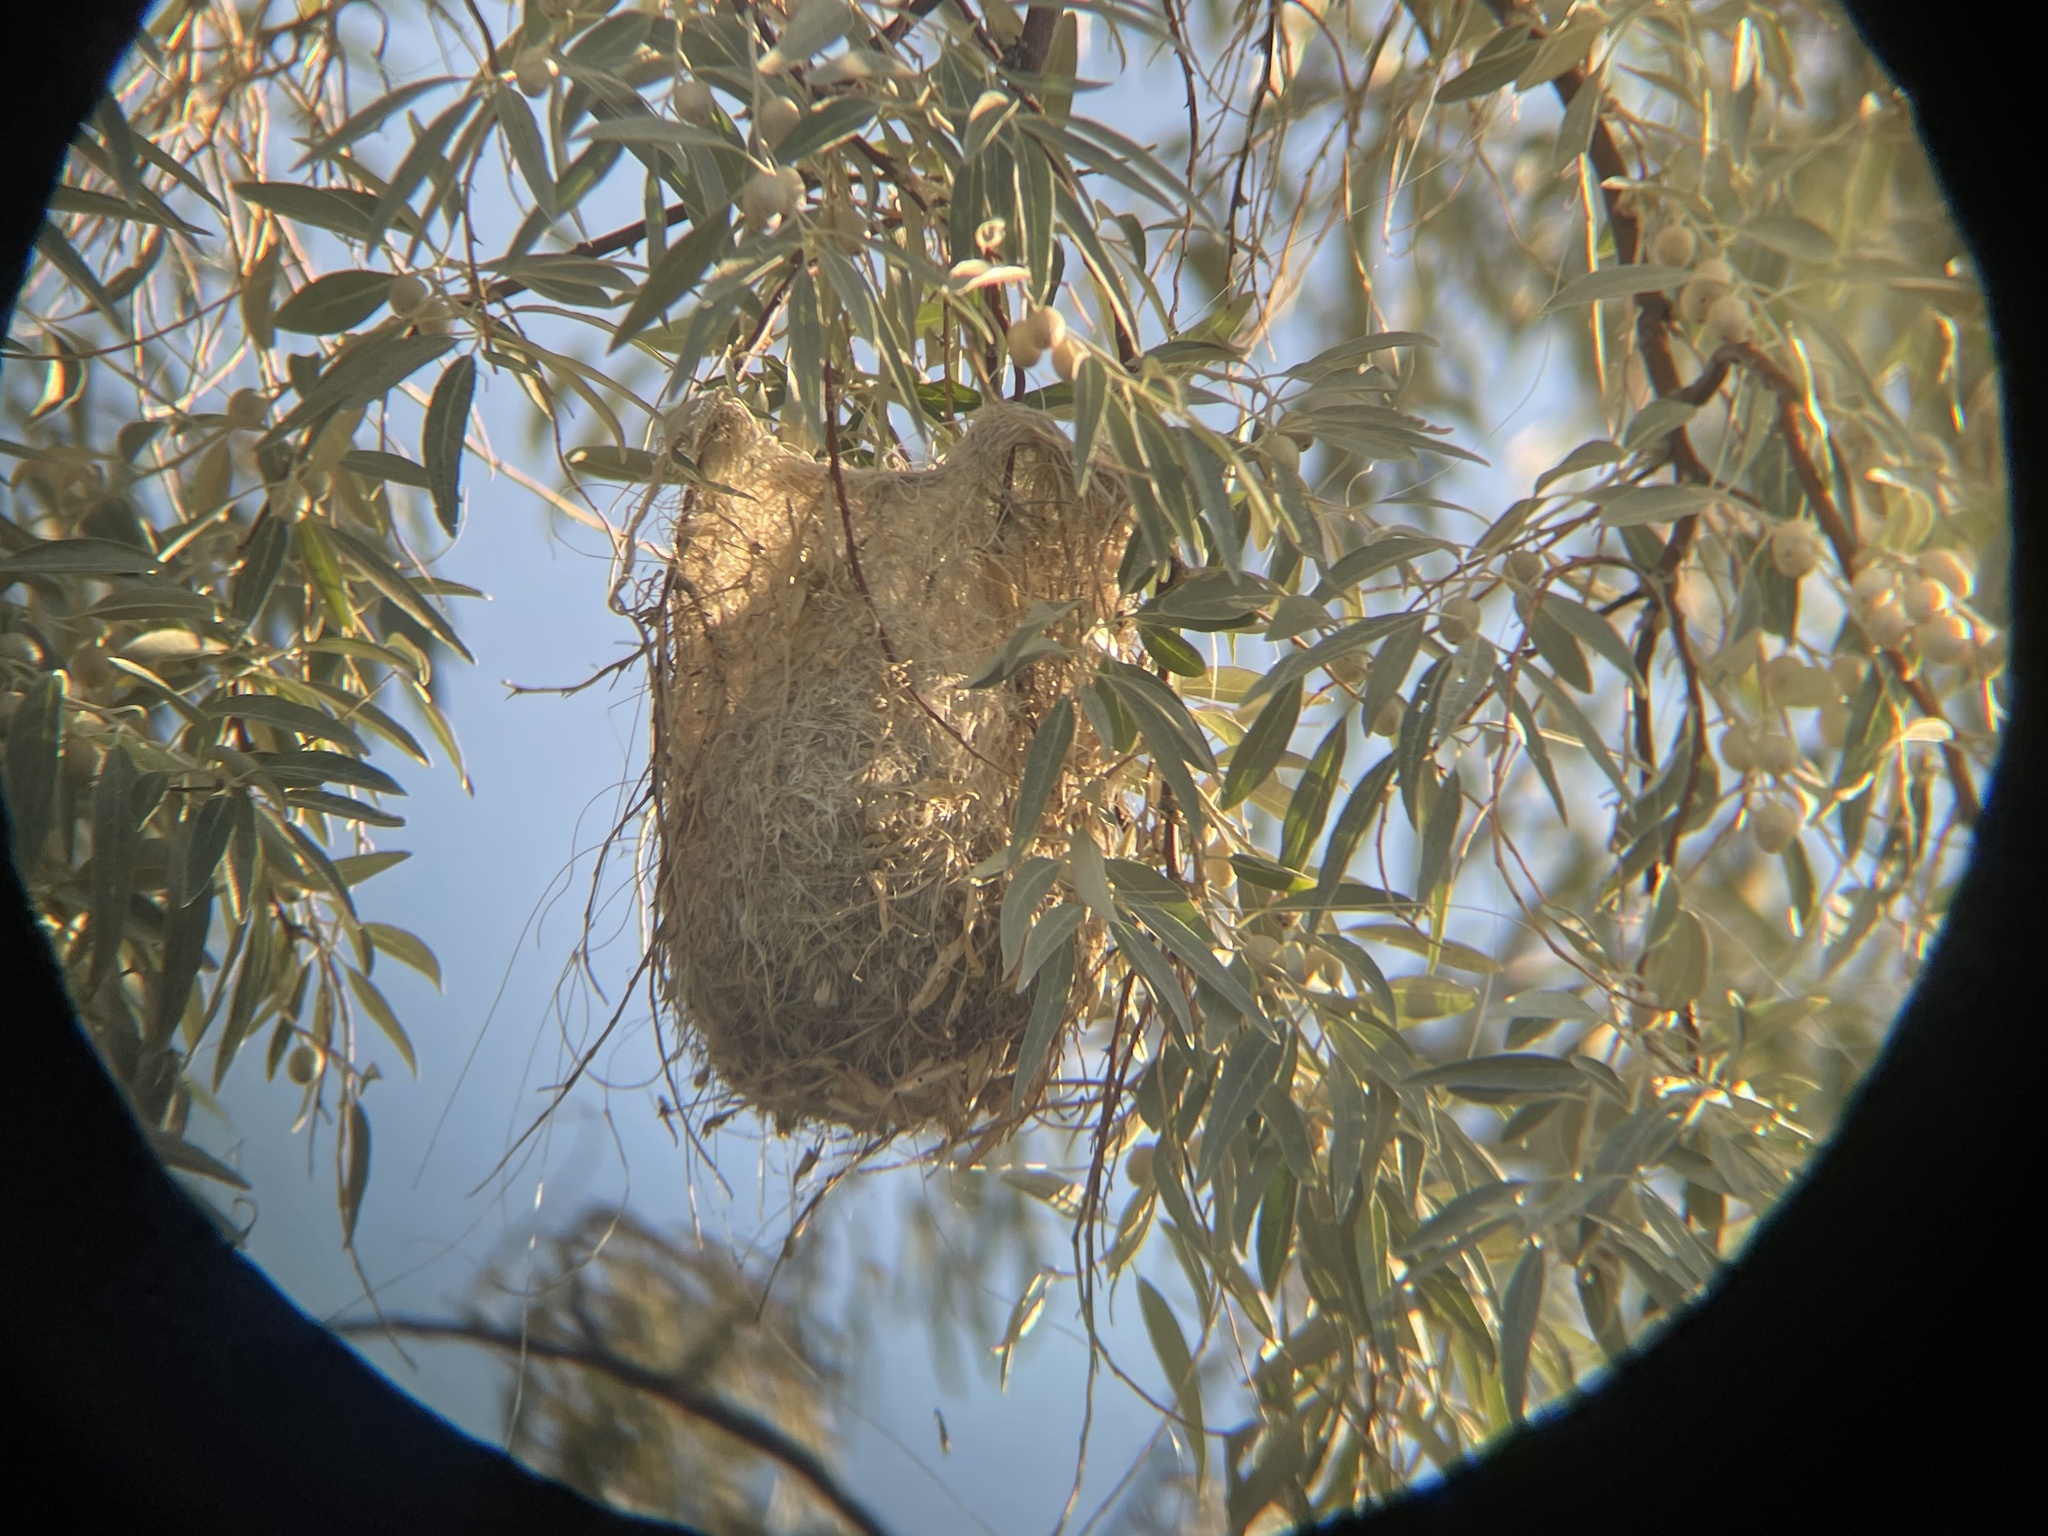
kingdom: Animalia
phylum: Chordata
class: Aves
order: Passeriformes
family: Icteridae
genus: Icterus
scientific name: Icterus bullockii
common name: Bullock's oriole
